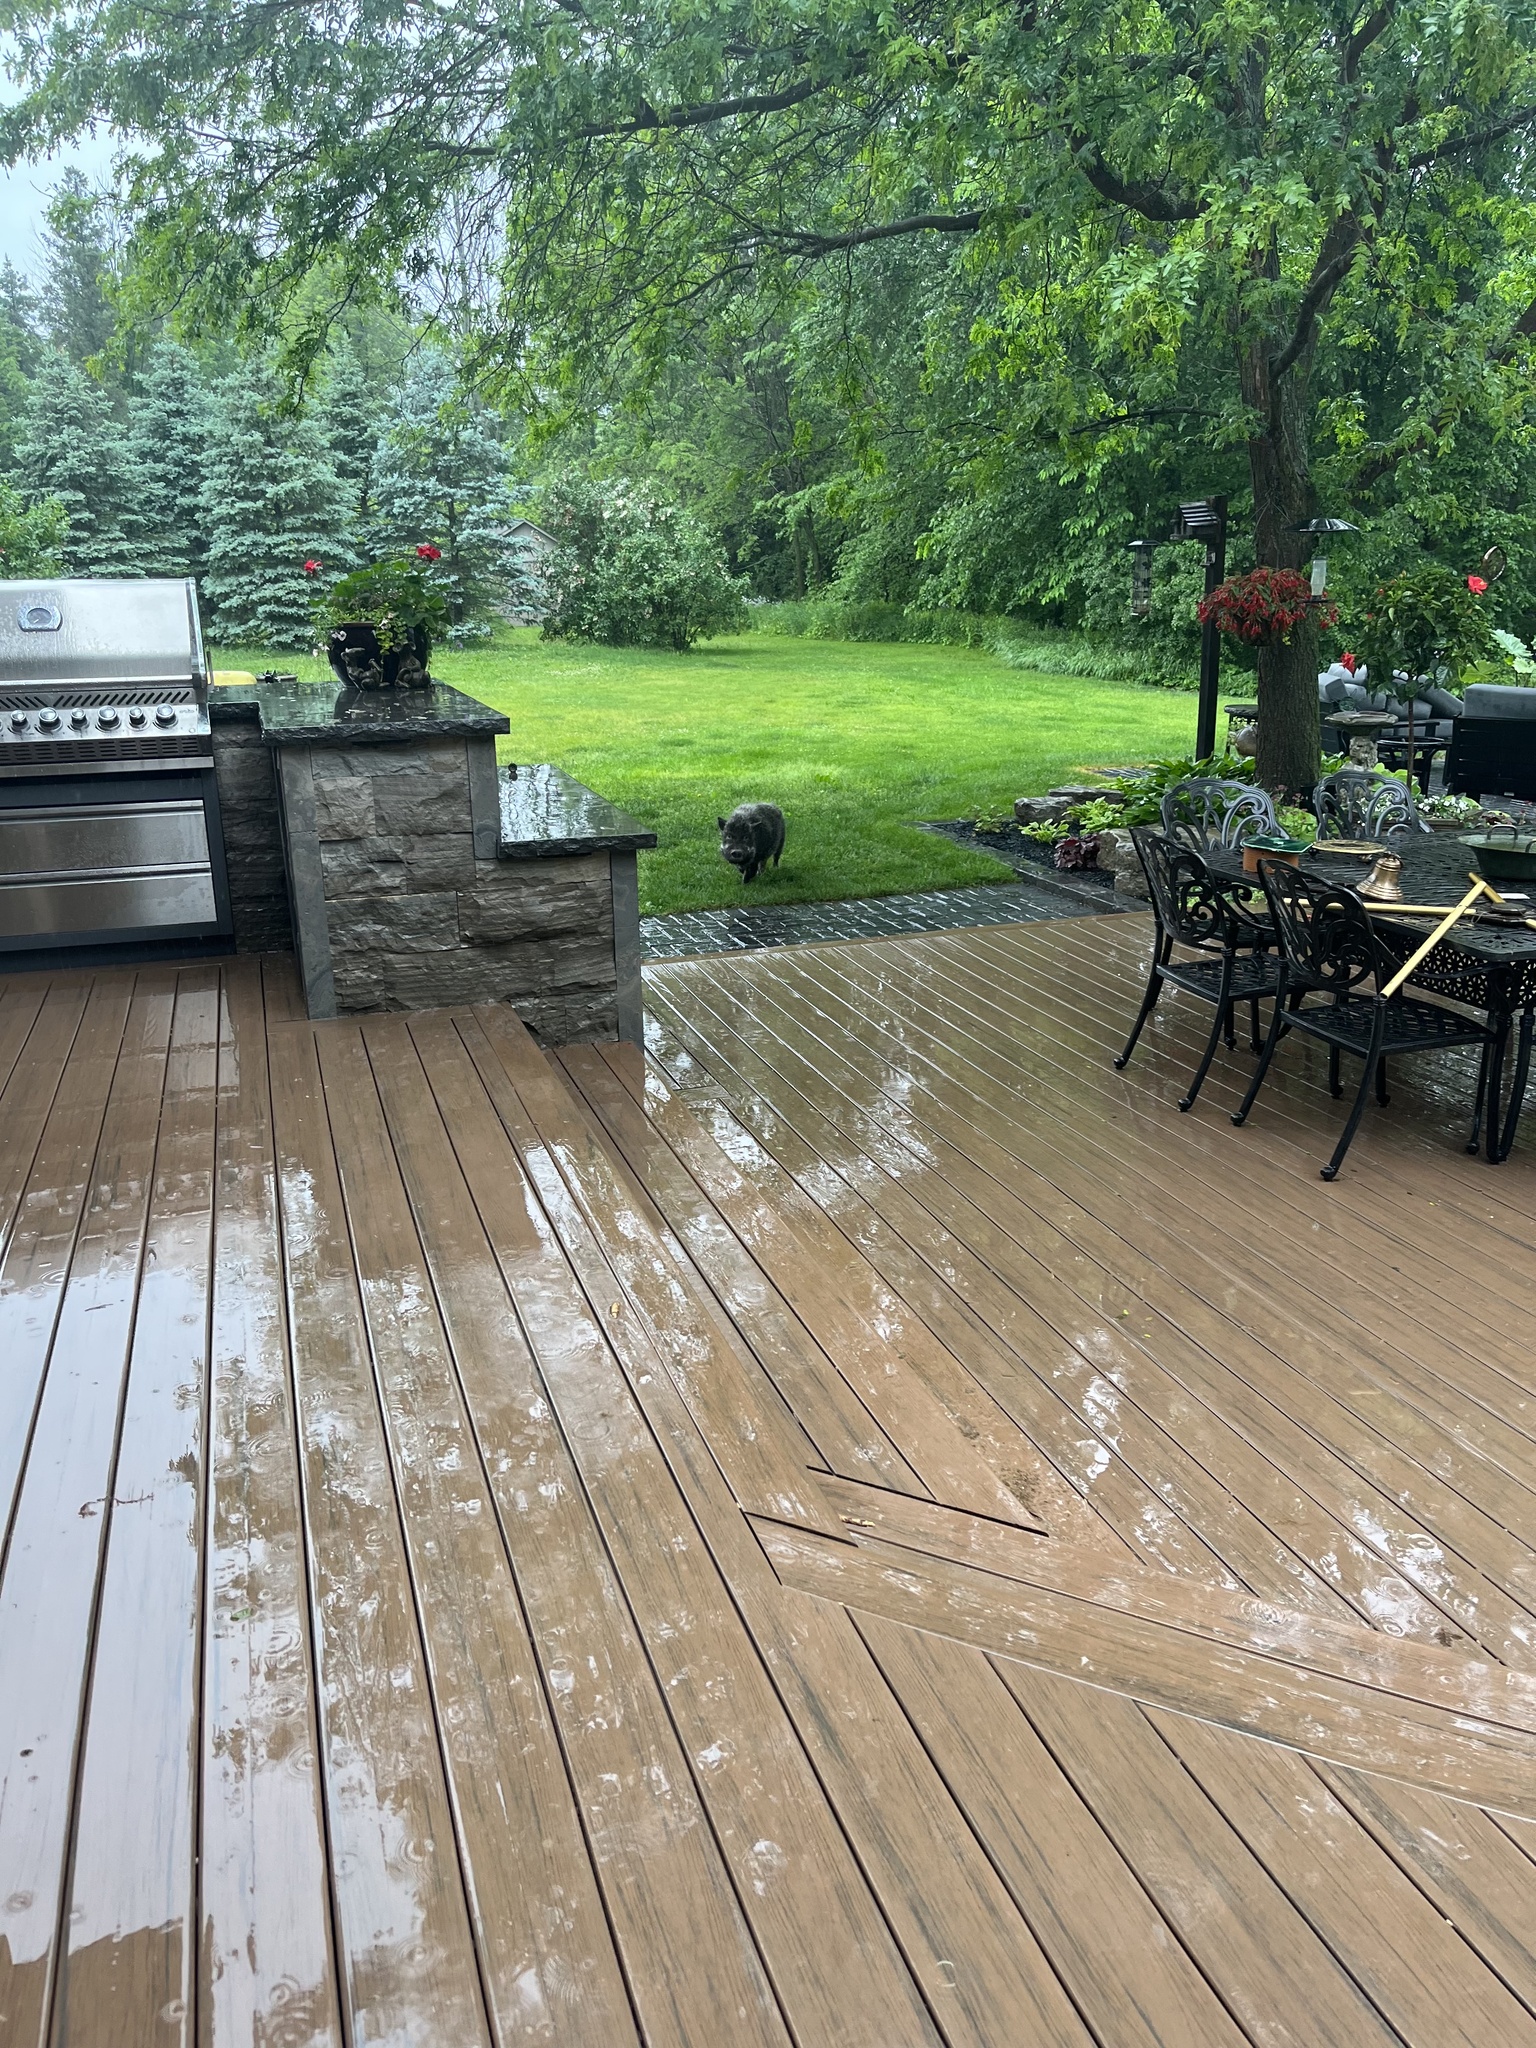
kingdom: Animalia
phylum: Chordata
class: Mammalia
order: Artiodactyla
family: Suidae
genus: Sus
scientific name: Sus scrofa
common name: Wild boar
